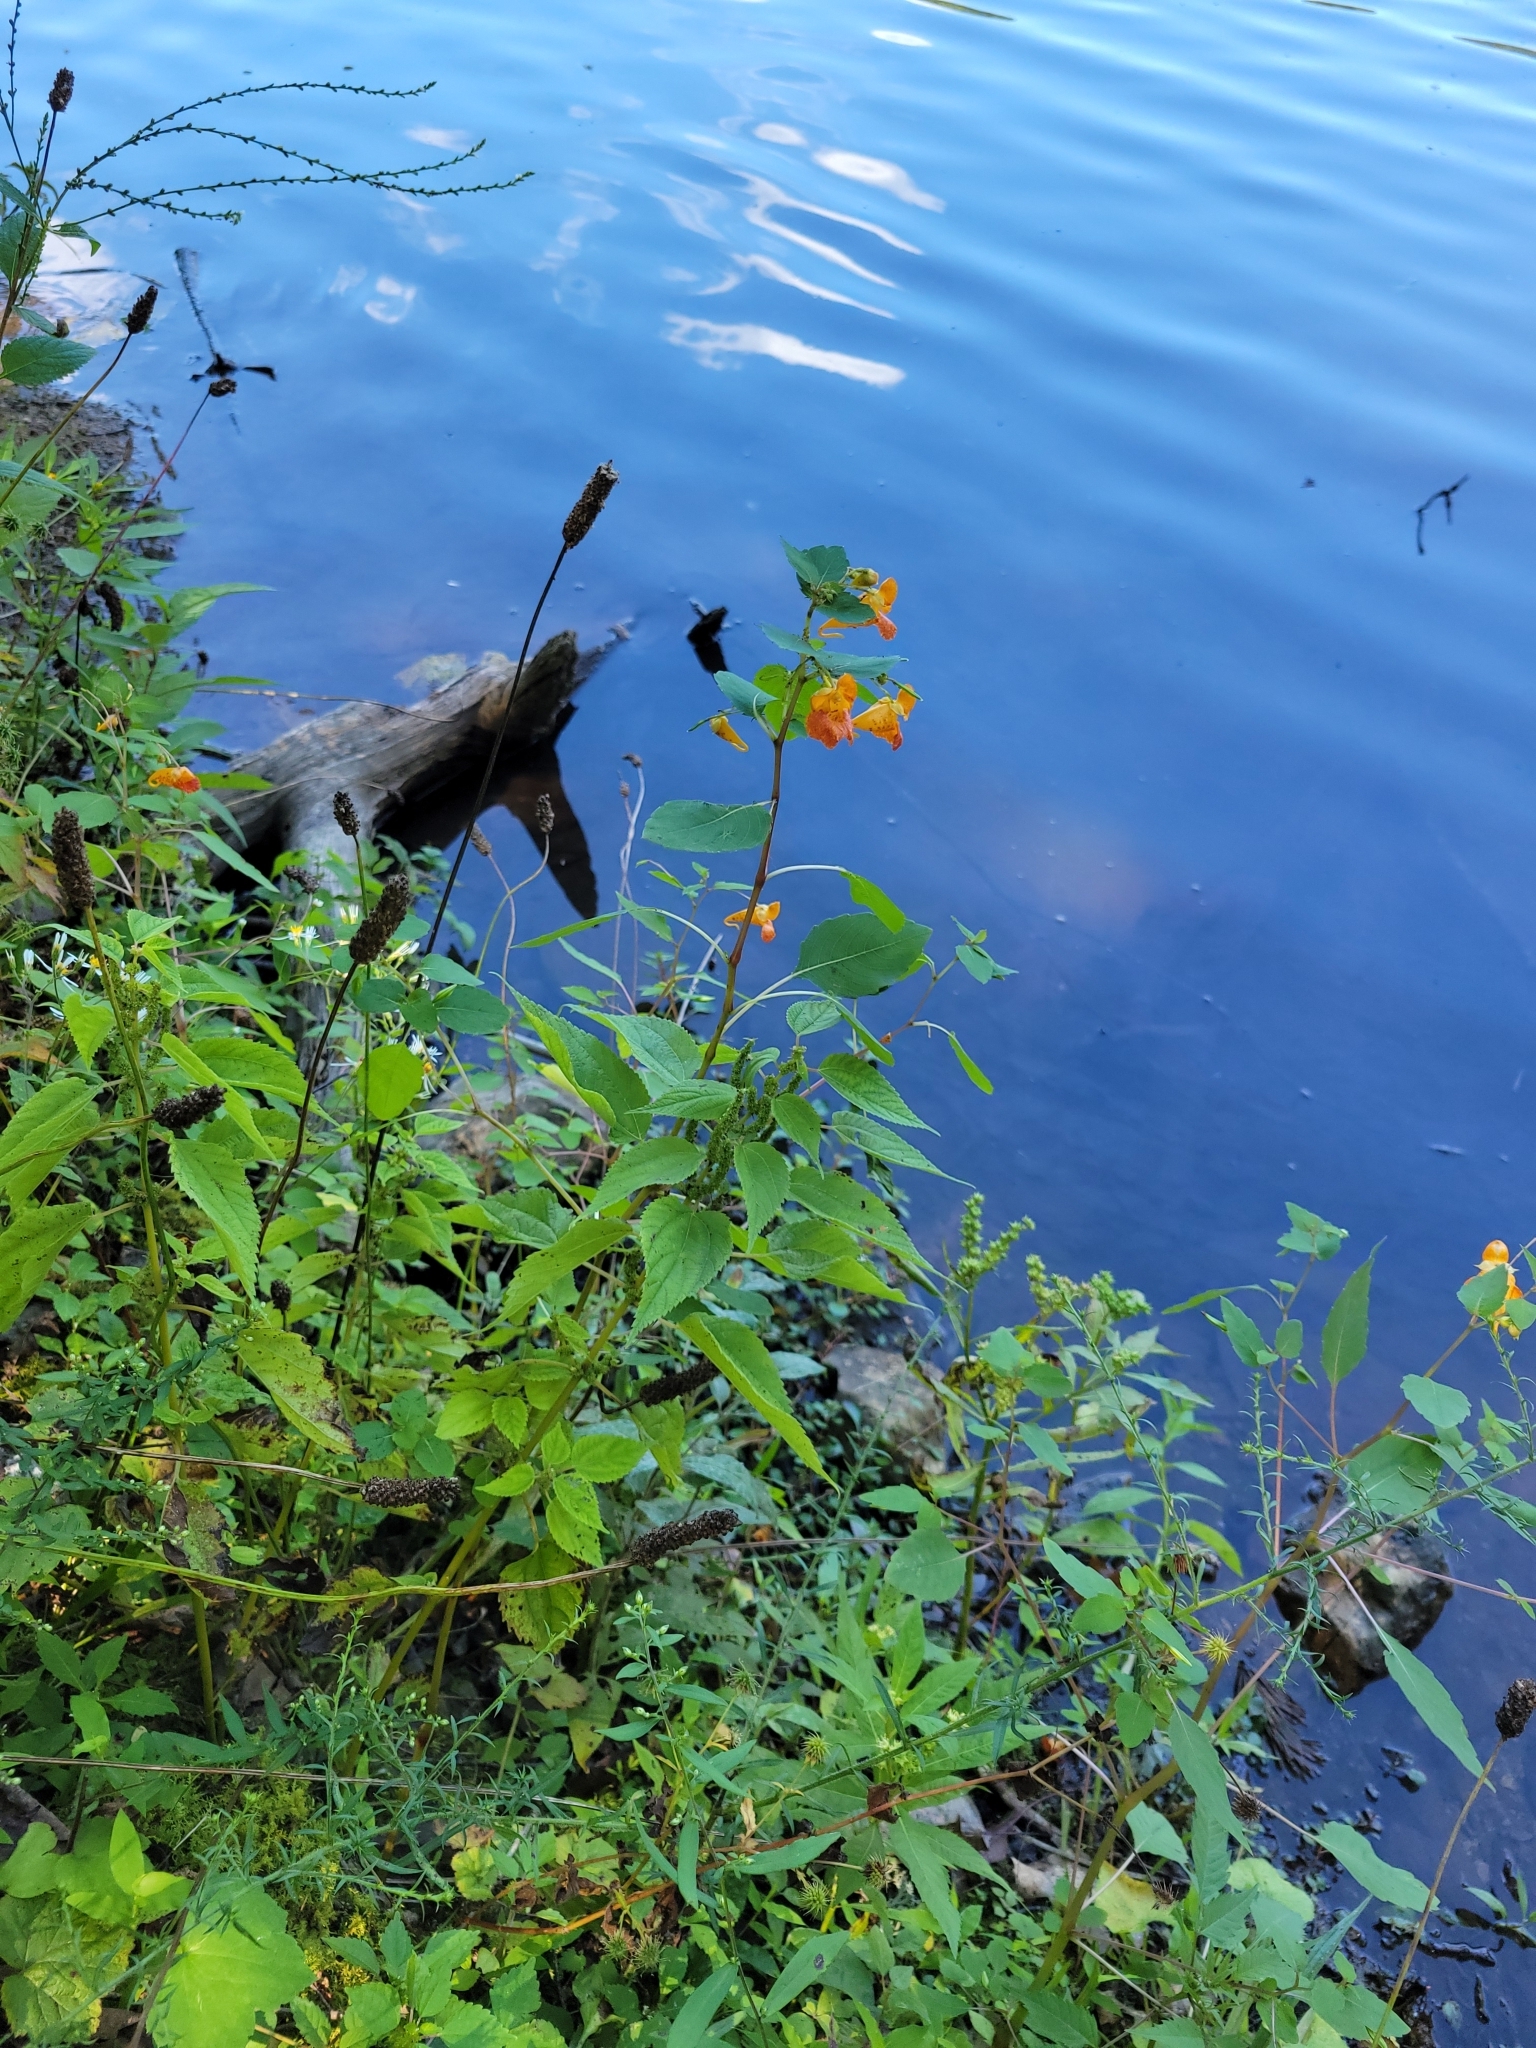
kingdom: Plantae
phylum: Tracheophyta
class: Magnoliopsida
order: Ericales
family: Balsaminaceae
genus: Impatiens
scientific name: Impatiens capensis
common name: Orange balsam
